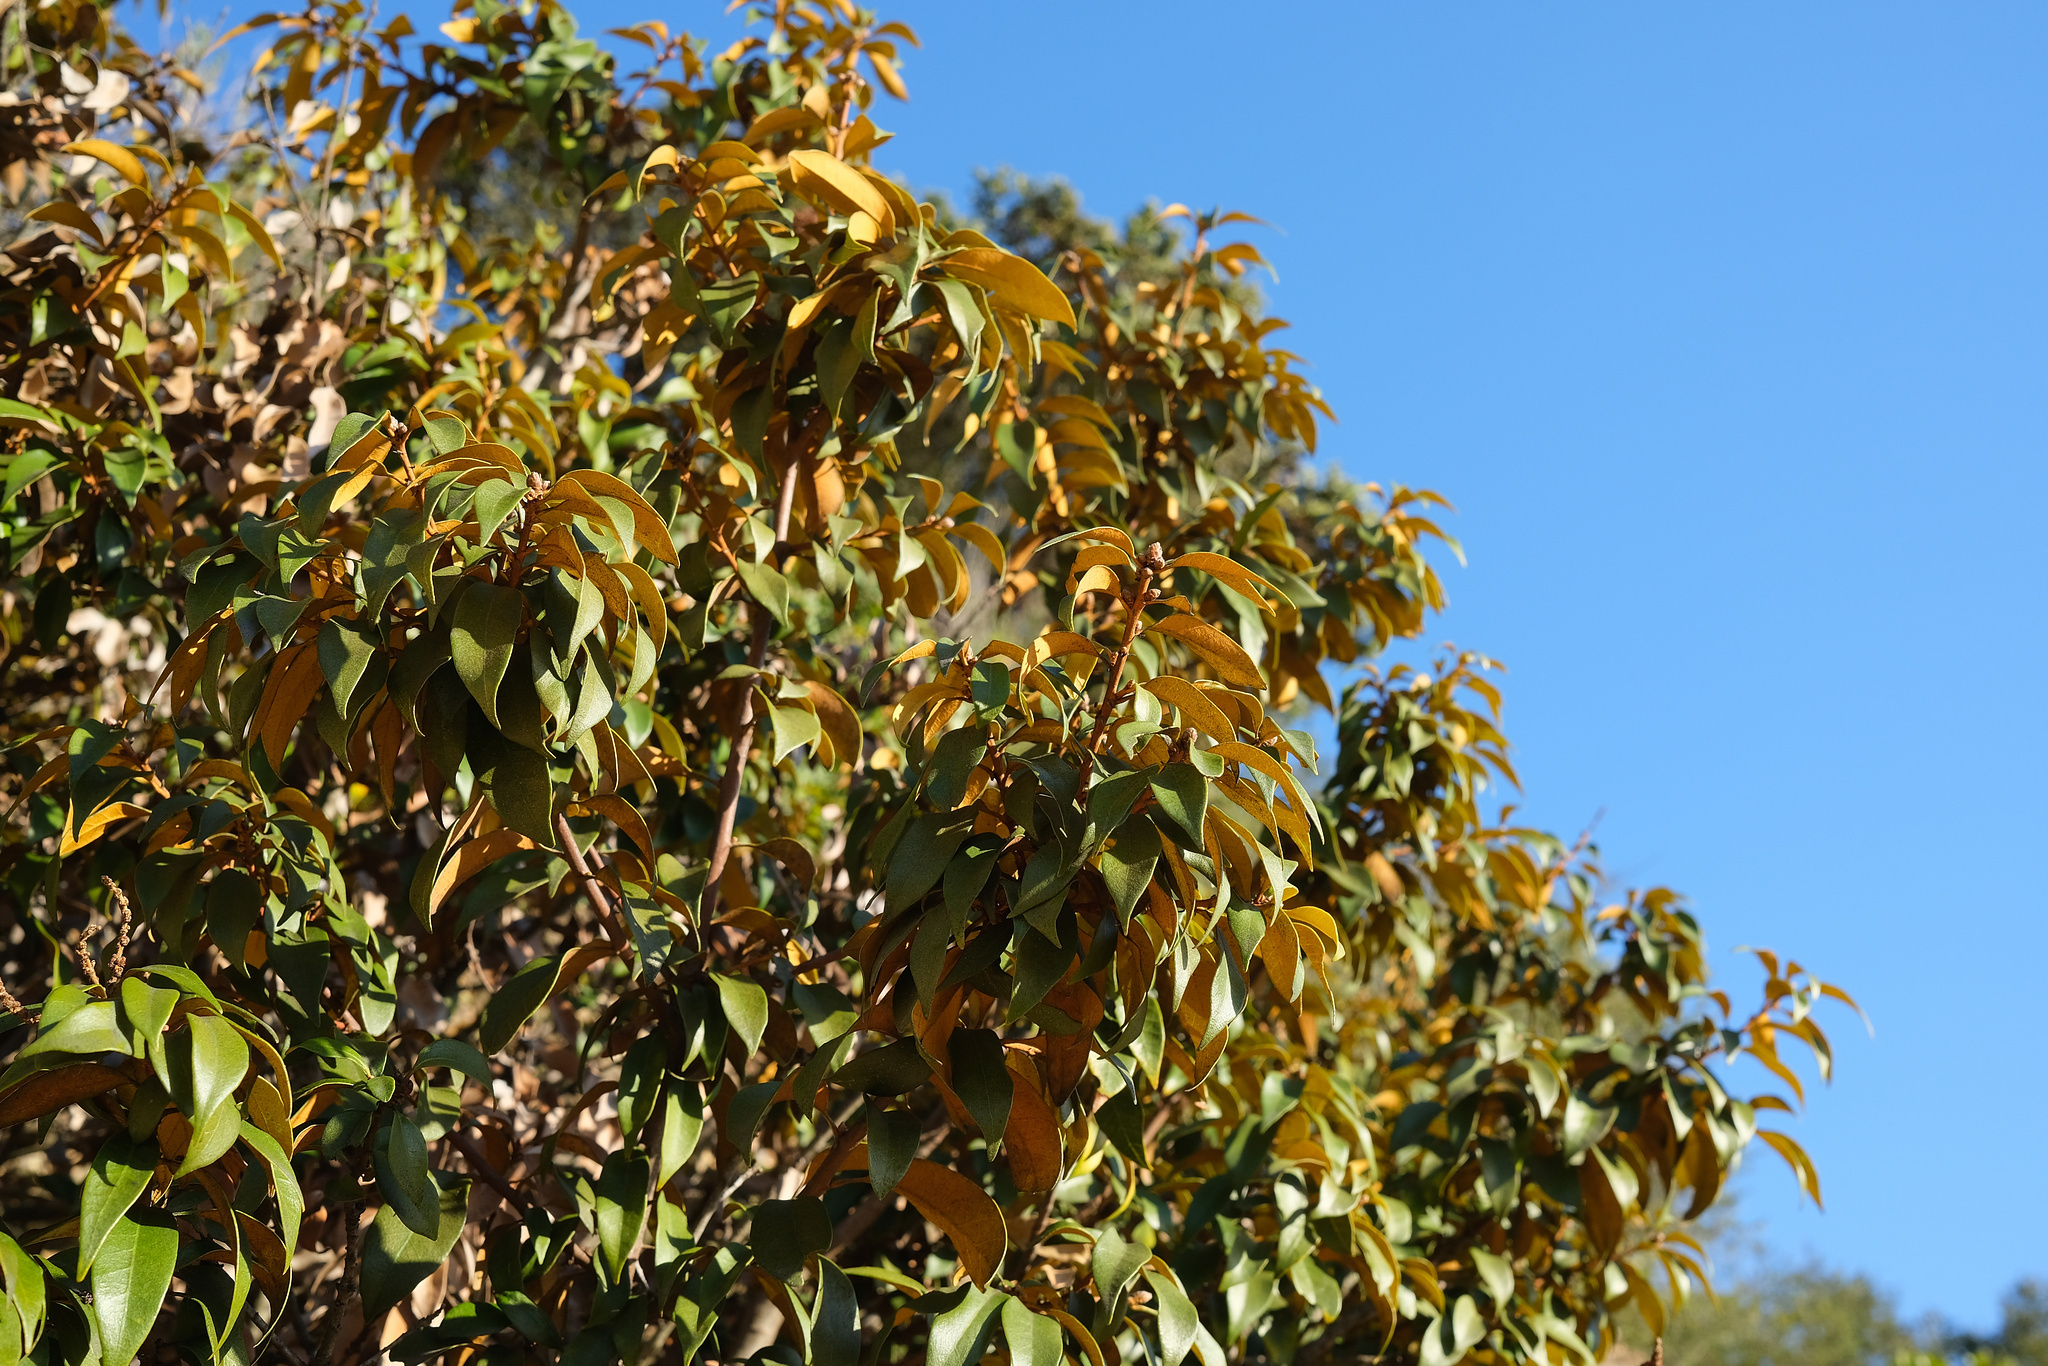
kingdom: Plantae
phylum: Tracheophyta
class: Magnoliopsida
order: Fagales
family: Fagaceae
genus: Chrysolepis
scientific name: Chrysolepis chrysophylla
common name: Giant chinquapin
